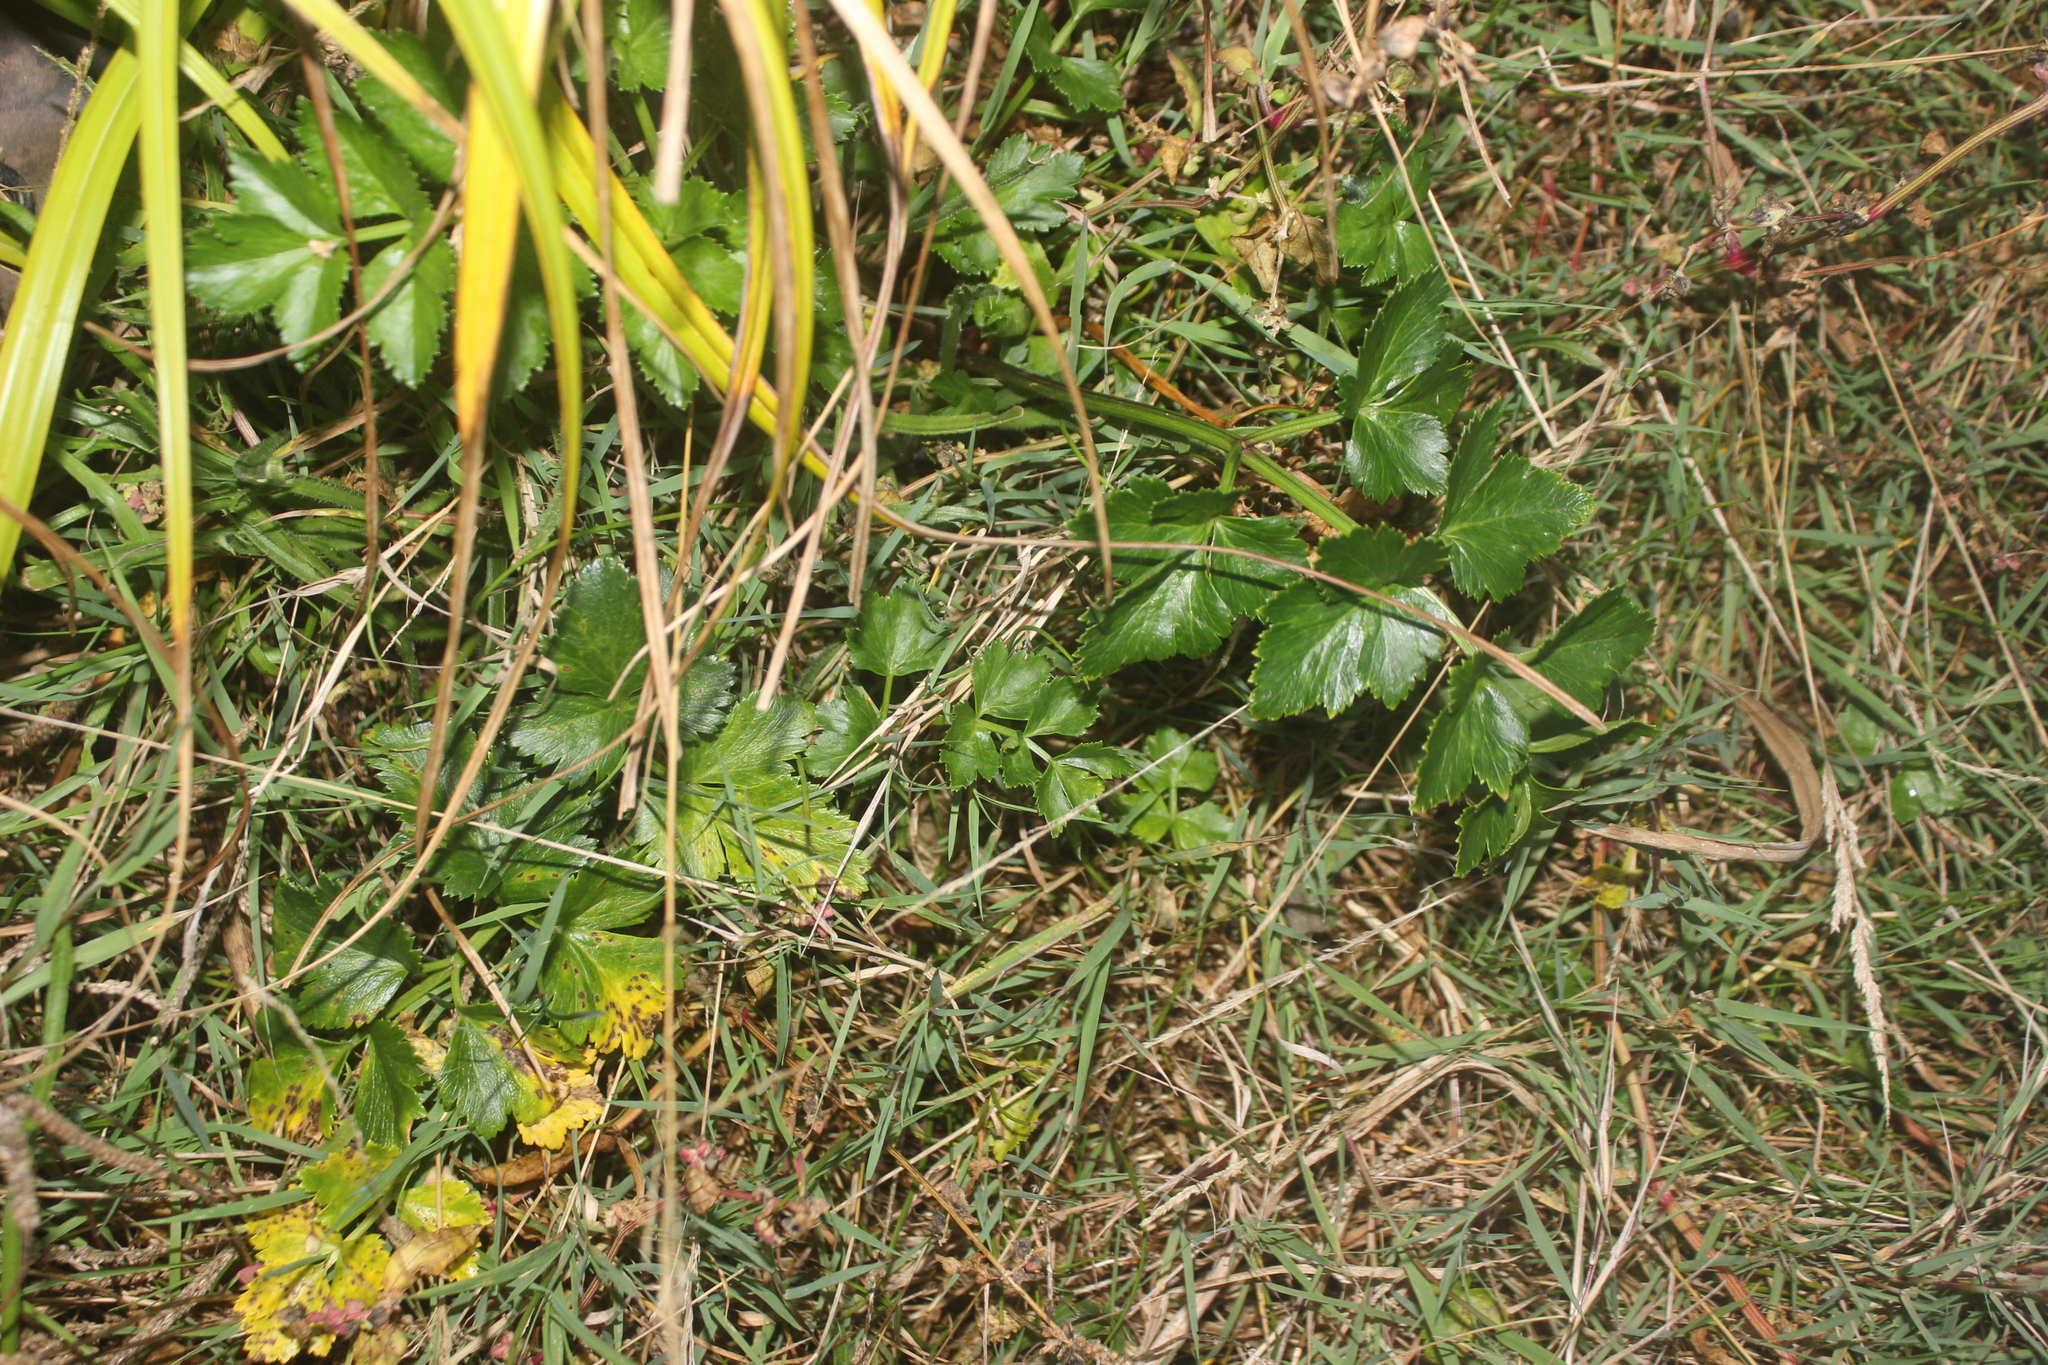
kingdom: Plantae
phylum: Tracheophyta
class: Magnoliopsida
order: Apiales
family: Apiaceae
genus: Apium
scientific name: Apium prostratum
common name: Prostrate marshwort
